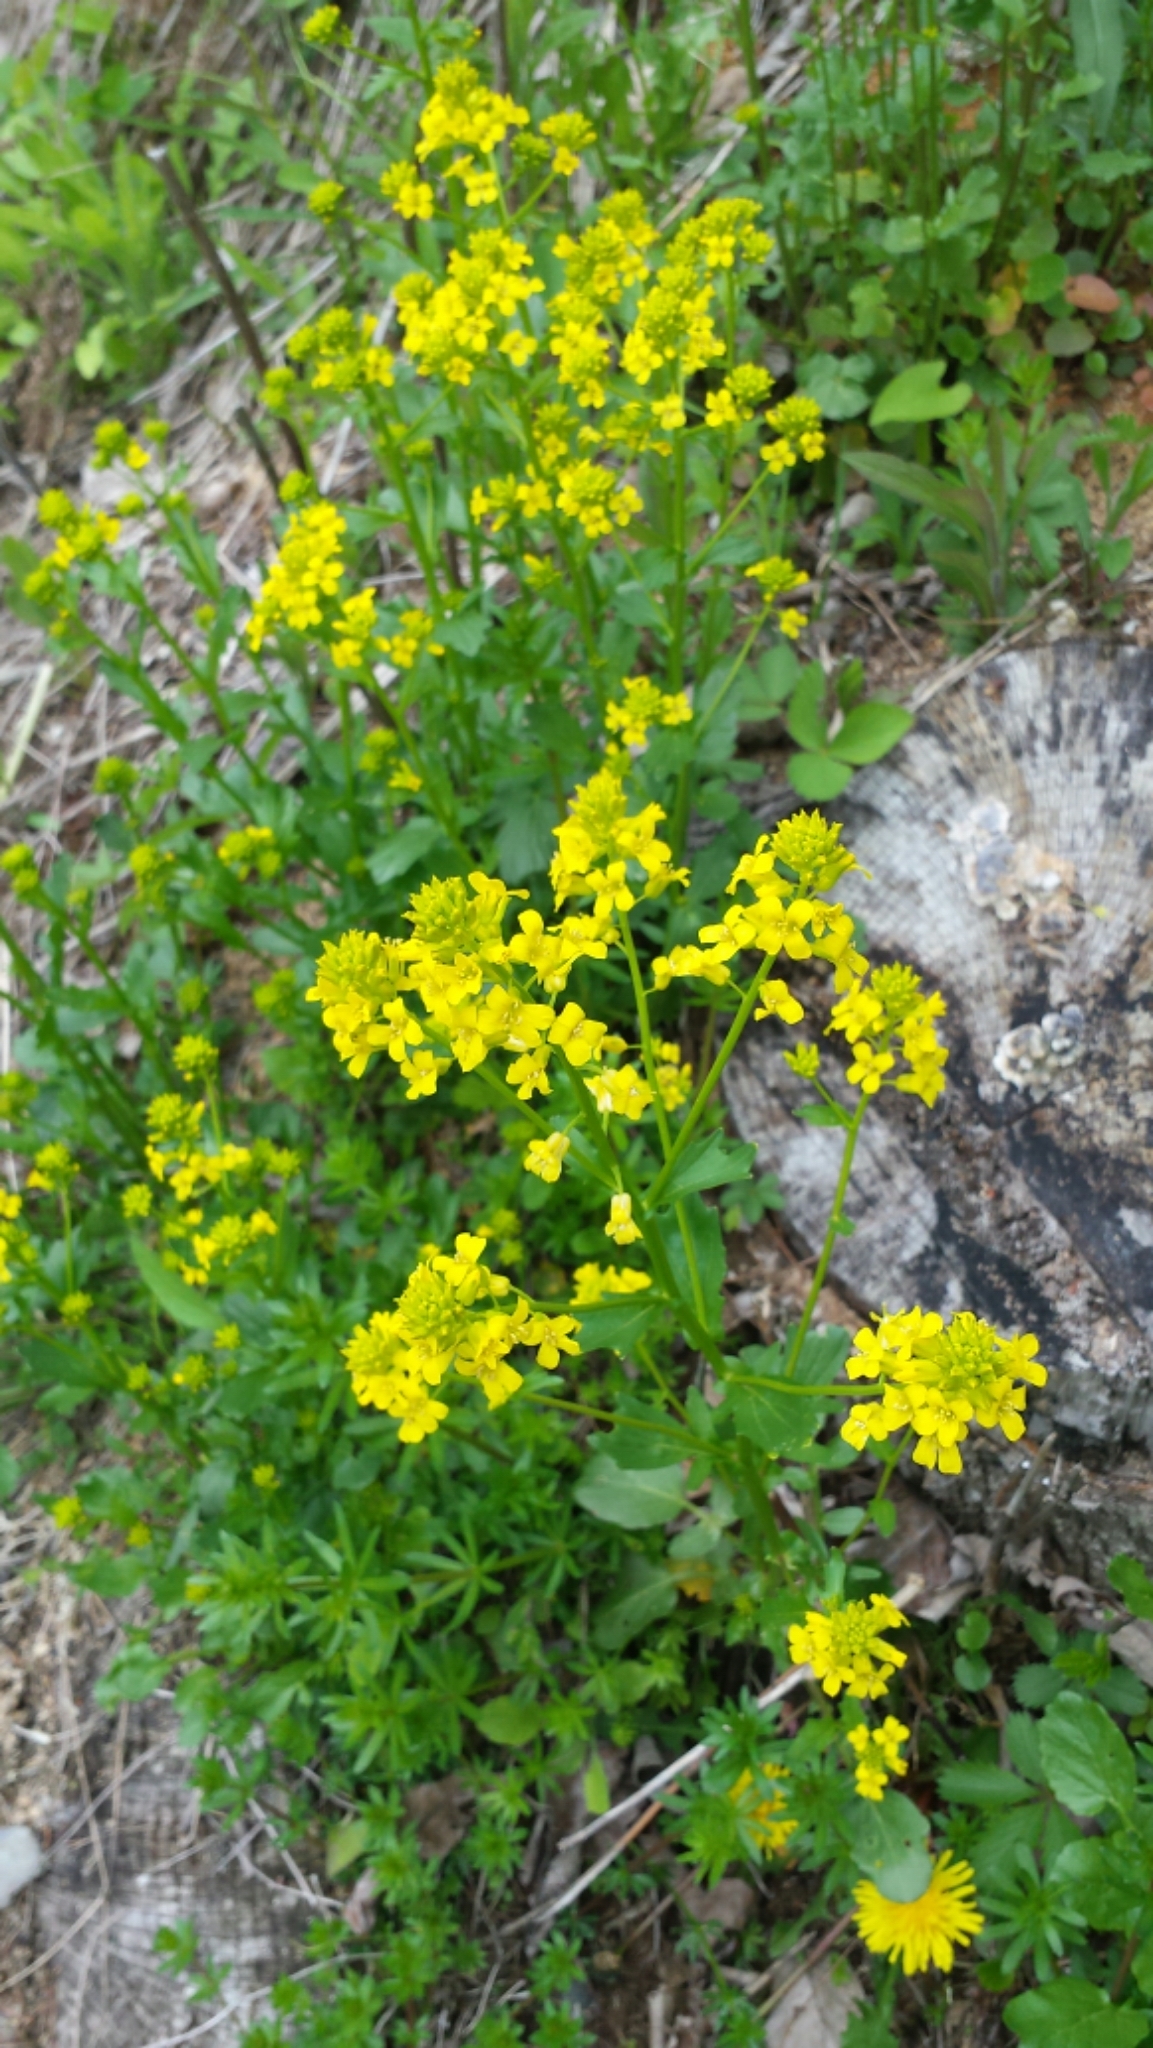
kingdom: Plantae
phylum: Tracheophyta
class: Magnoliopsida
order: Brassicales
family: Brassicaceae
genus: Barbarea
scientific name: Barbarea vulgaris
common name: Cressy-greens
